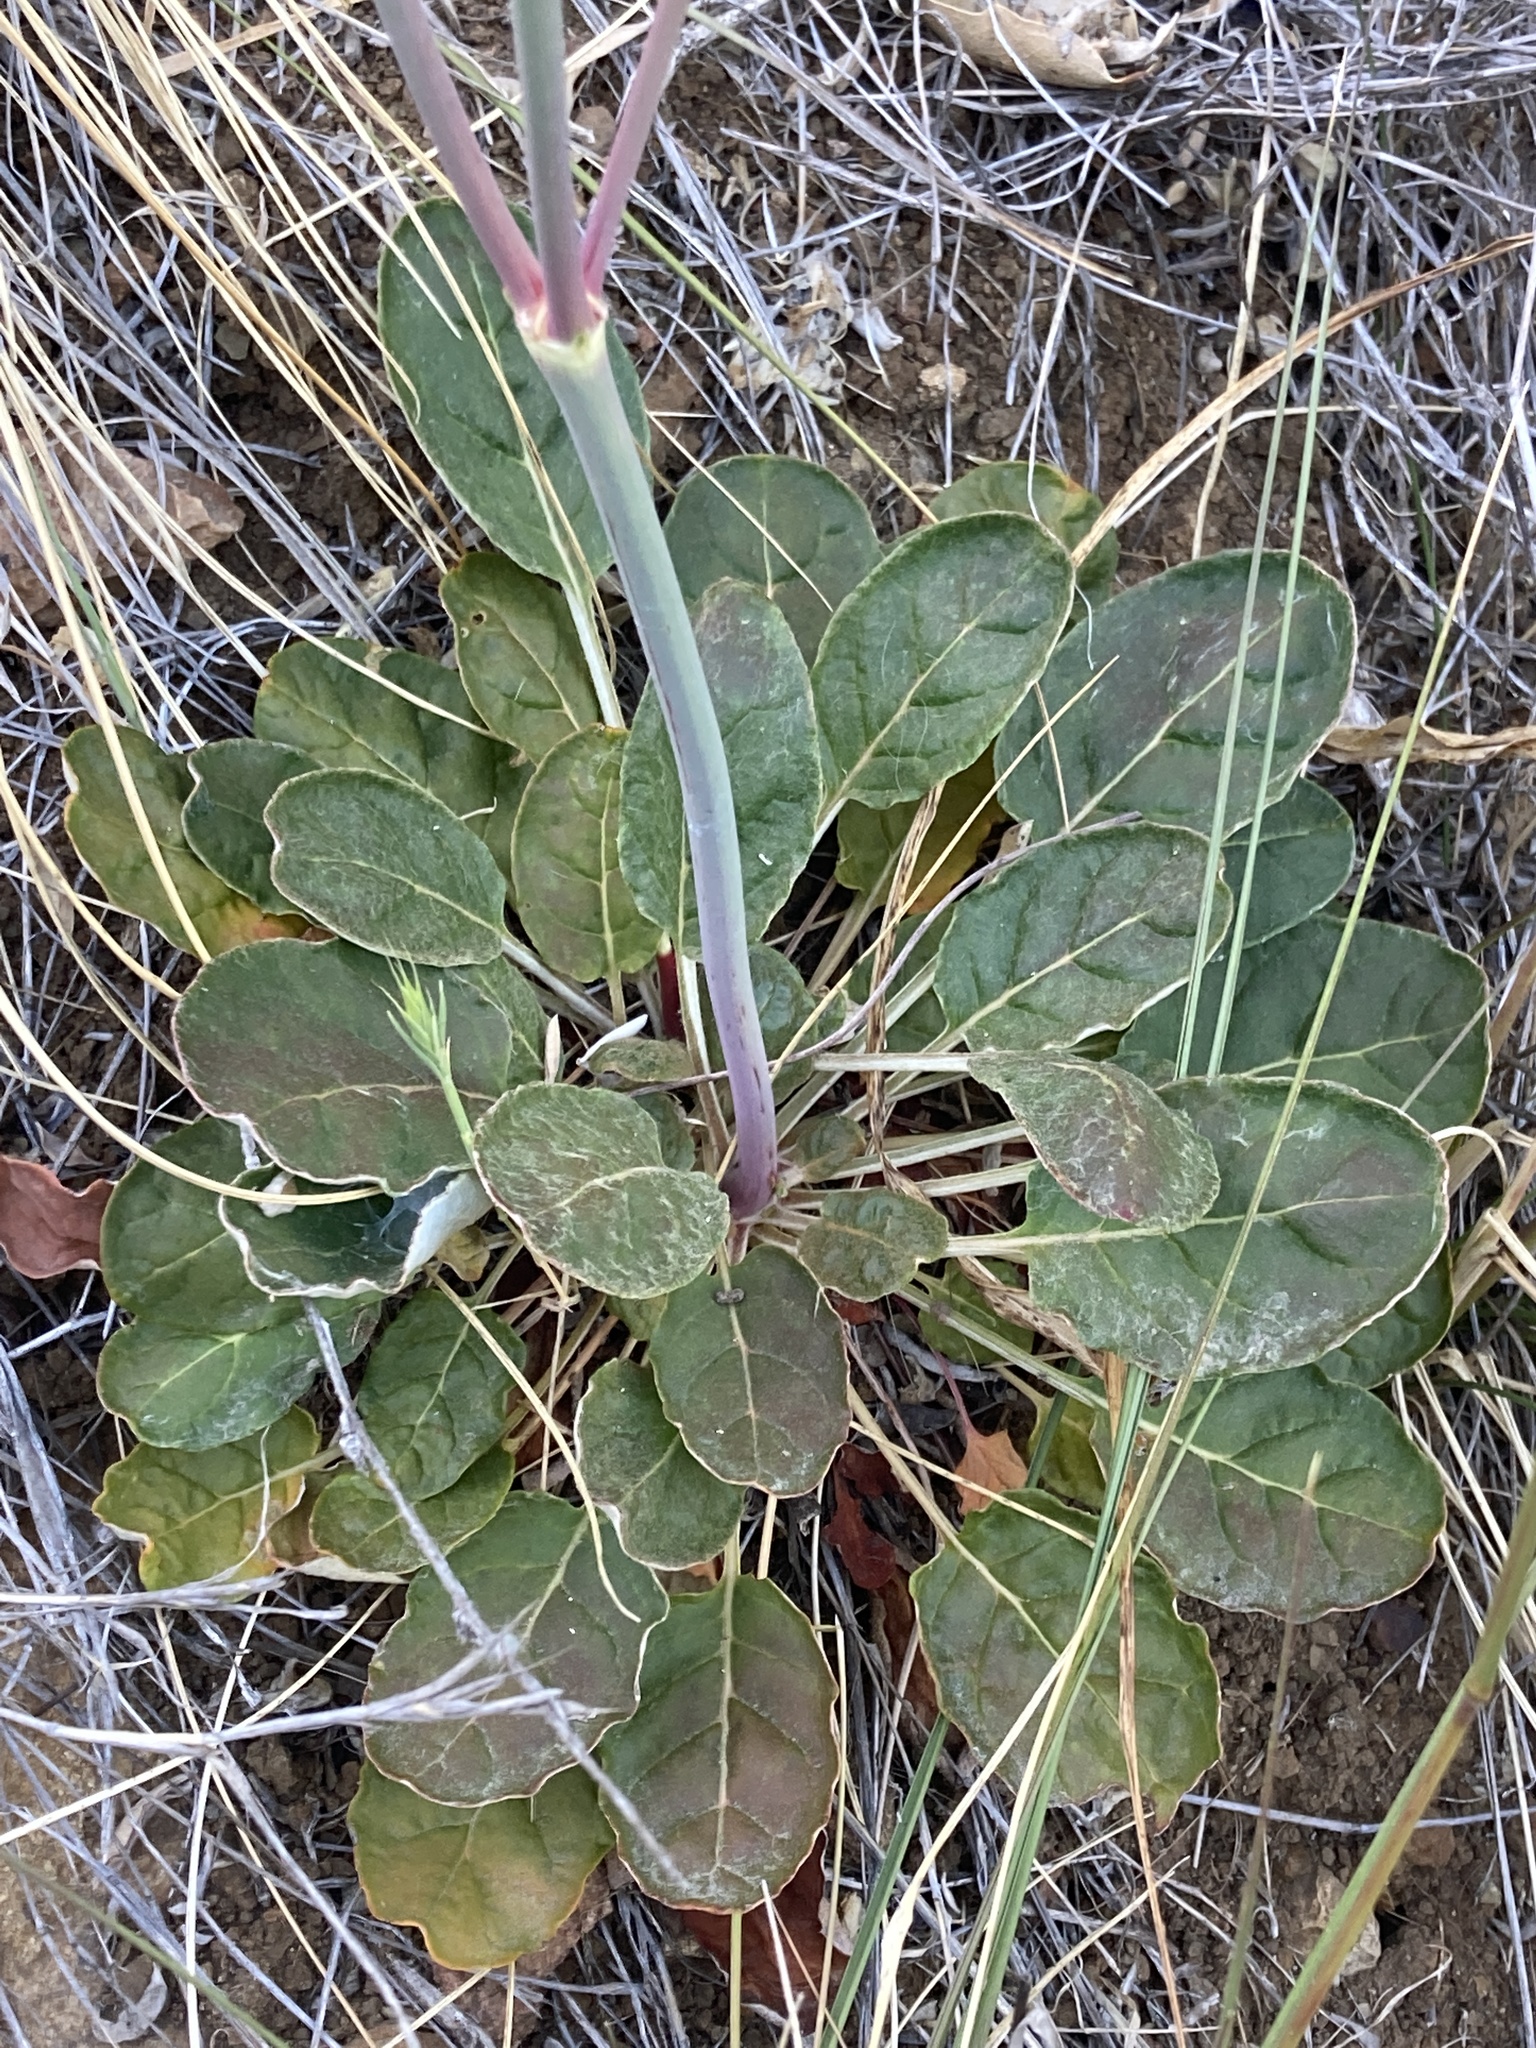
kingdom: Plantae
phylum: Tracheophyta
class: Magnoliopsida
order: Caryophyllales
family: Polygonaceae
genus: Eriogonum
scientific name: Eriogonum nudum
